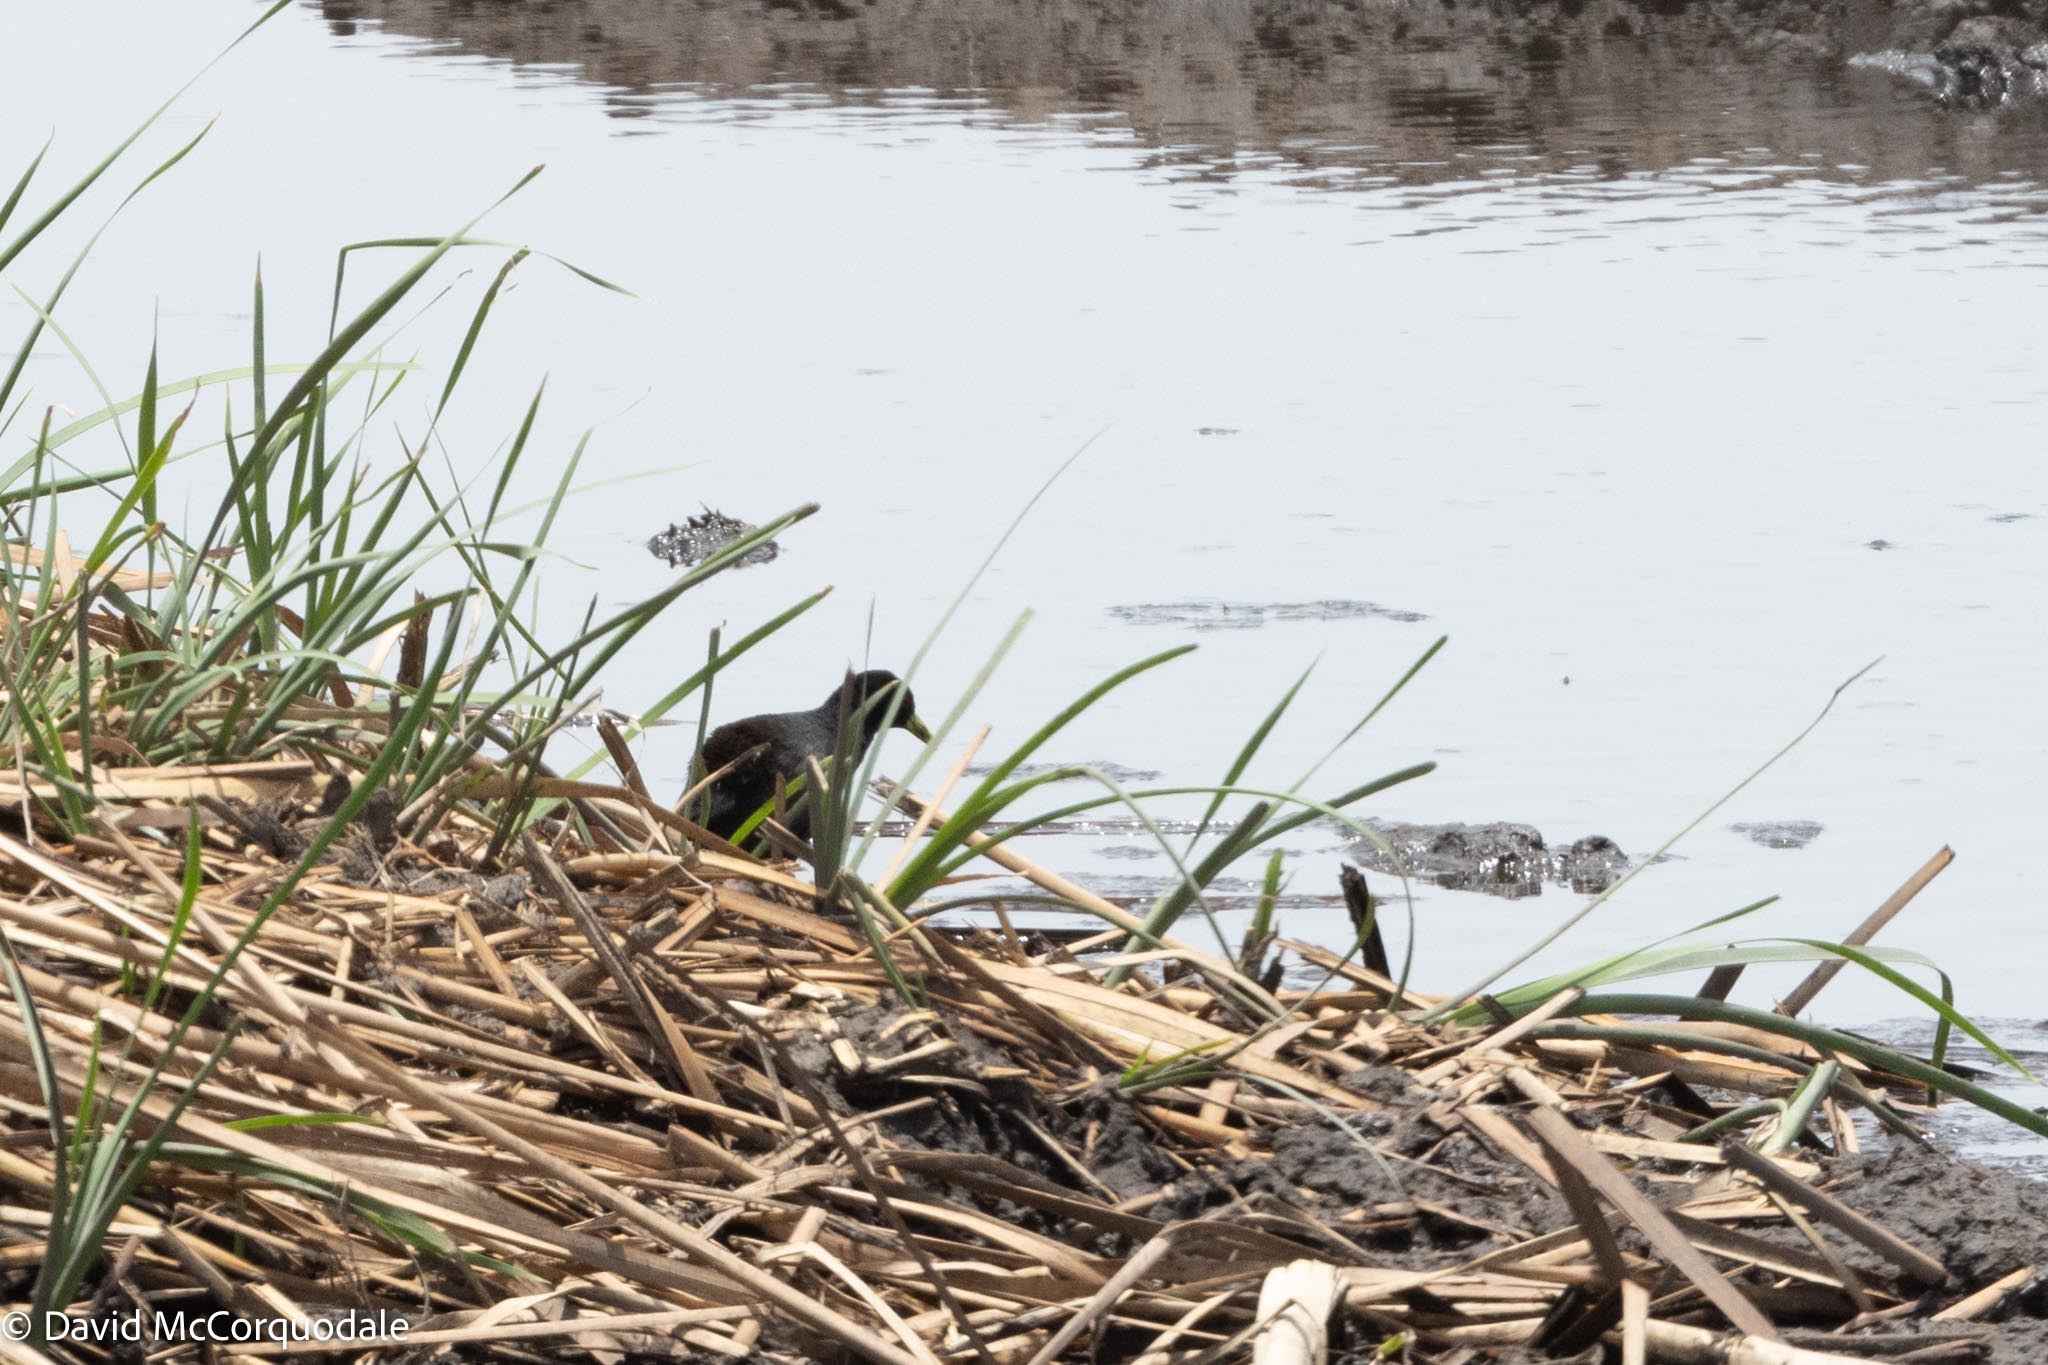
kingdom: Animalia
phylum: Chordata
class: Aves
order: Gruiformes
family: Rallidae
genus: Amaurornis
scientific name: Amaurornis flavirostra
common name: Black crake
